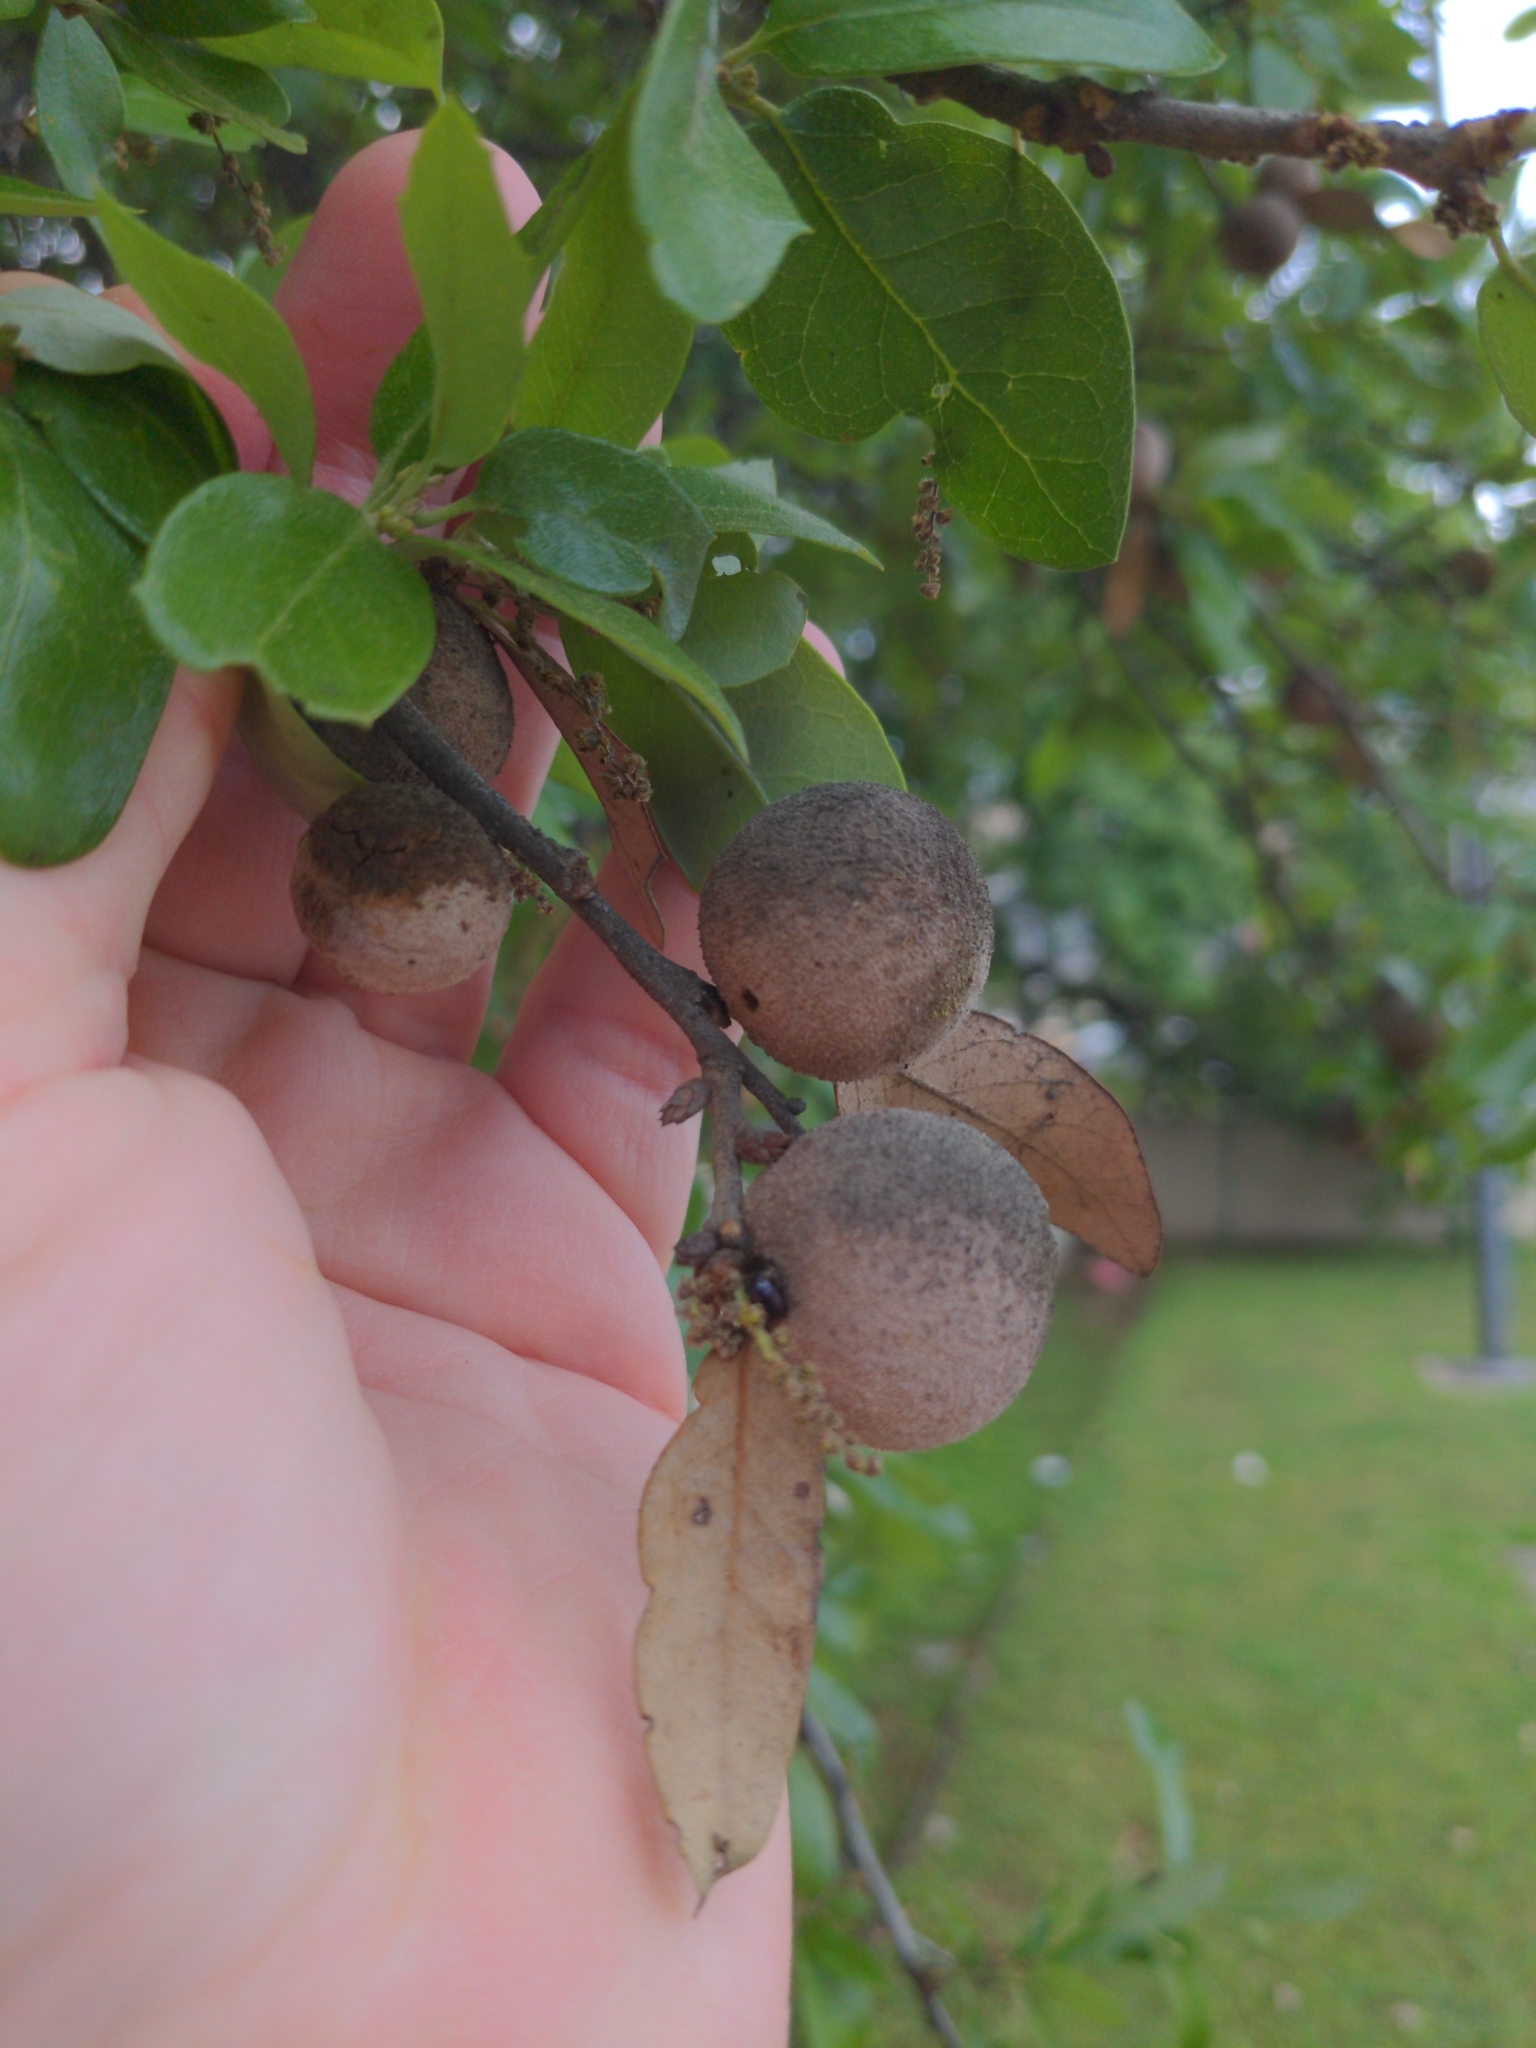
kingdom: Animalia
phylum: Arthropoda
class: Insecta
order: Hymenoptera
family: Cynipidae
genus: Disholcaspis
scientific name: Disholcaspis
